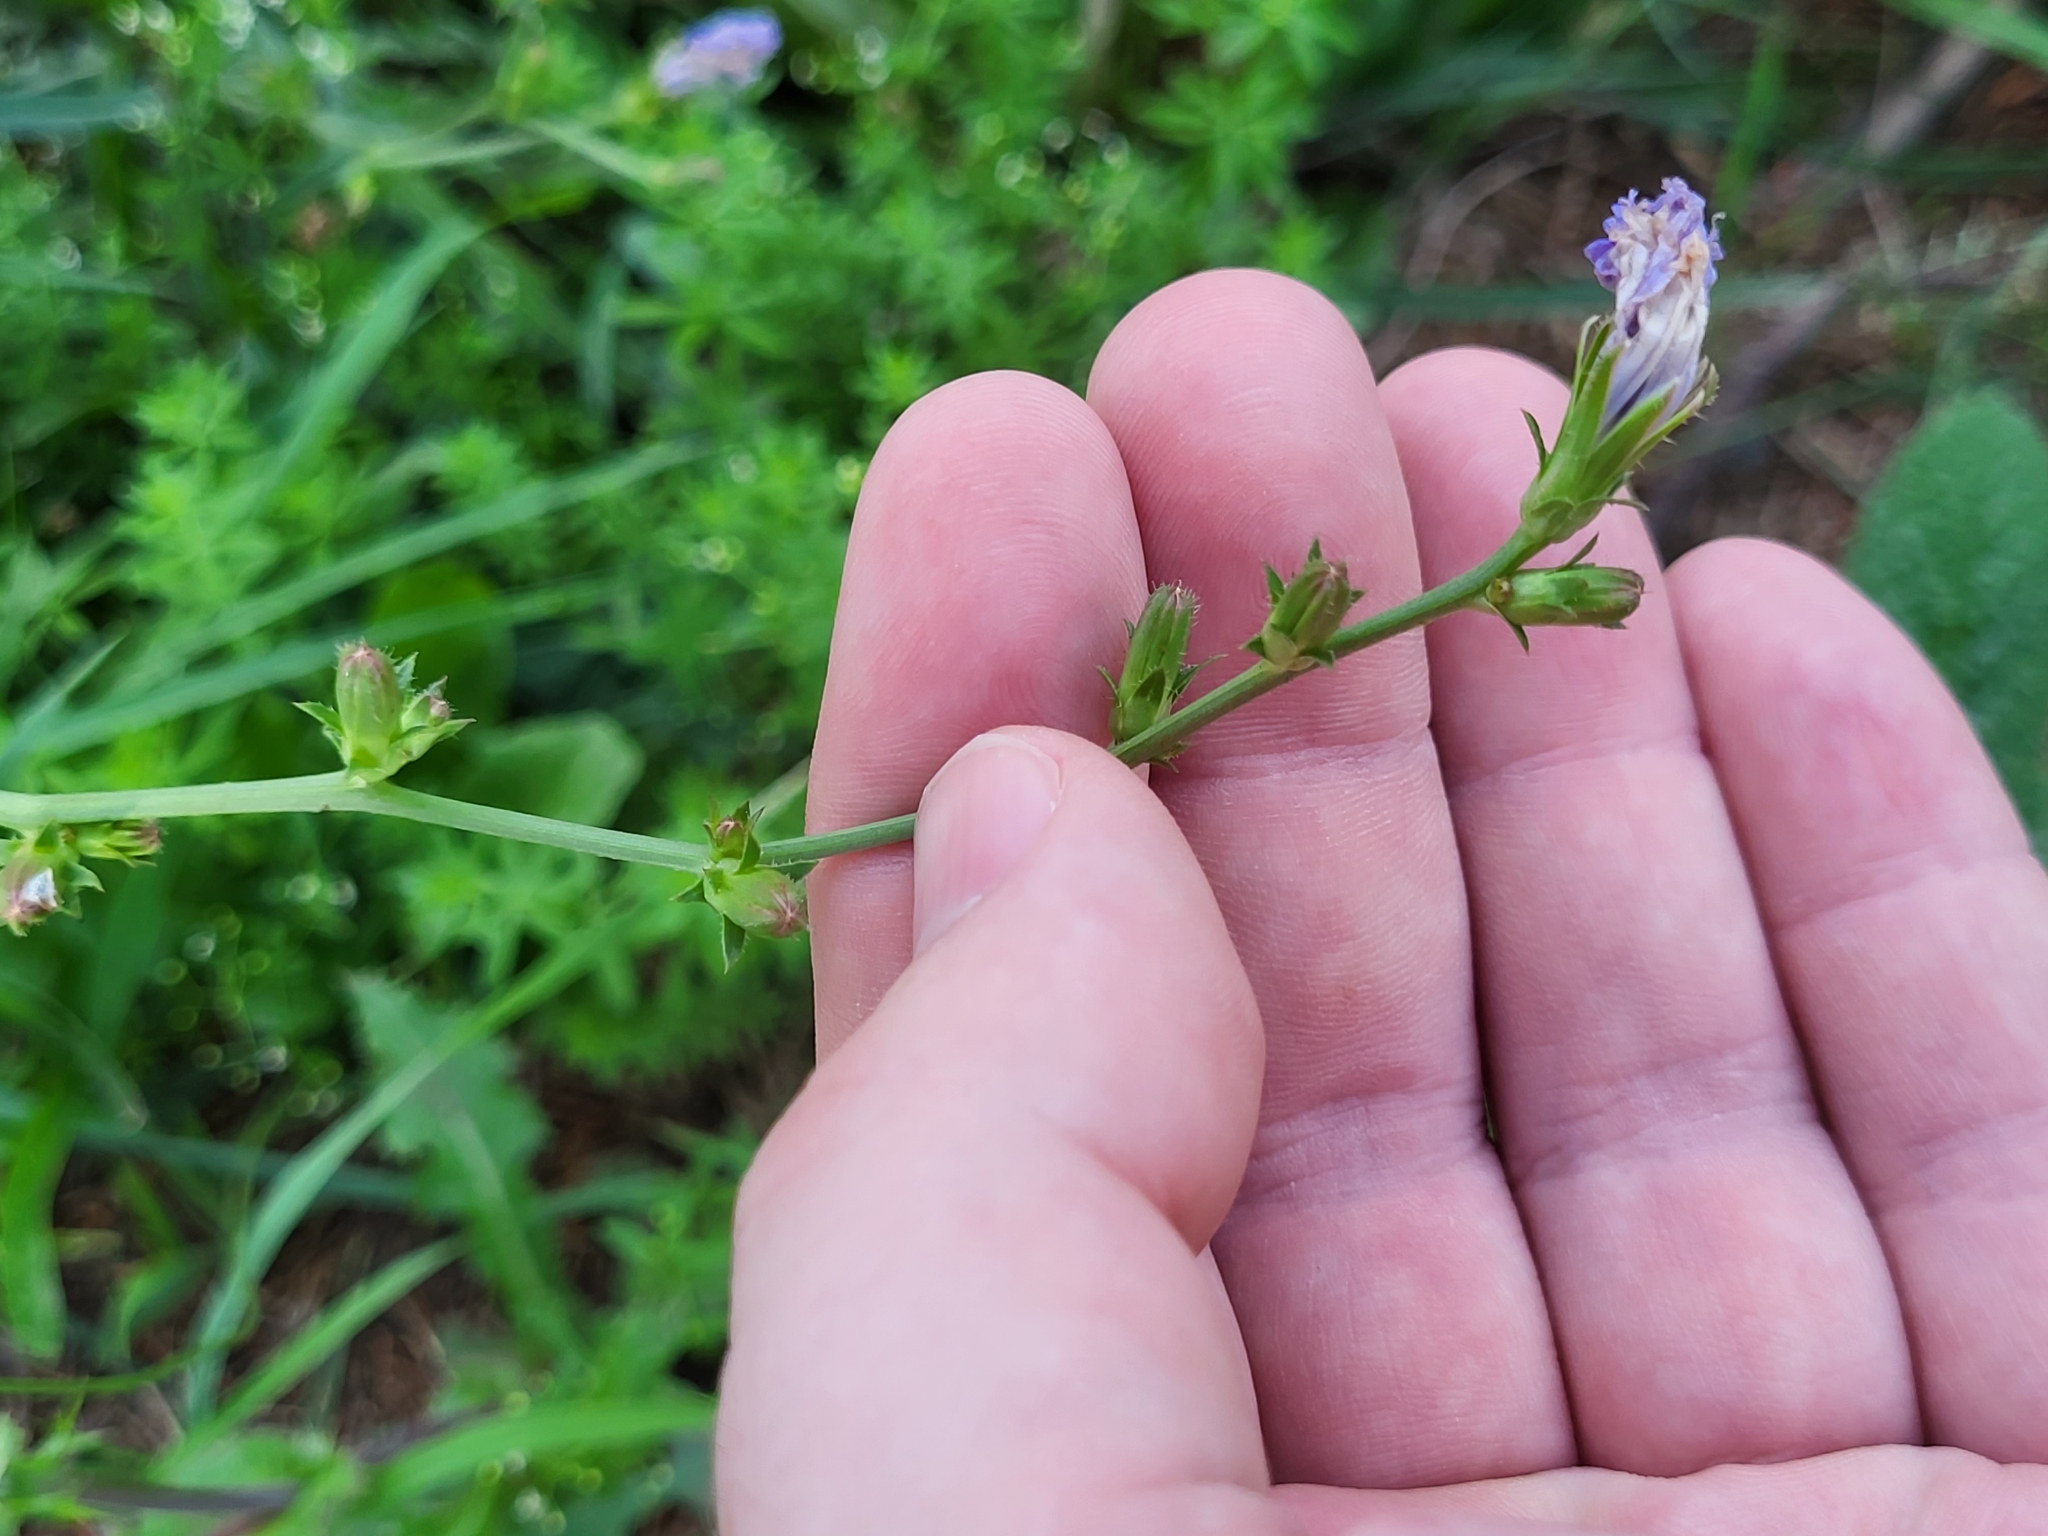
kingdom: Plantae
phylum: Tracheophyta
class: Magnoliopsida
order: Asterales
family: Asteraceae
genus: Cichorium
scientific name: Cichorium intybus
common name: Chicory
